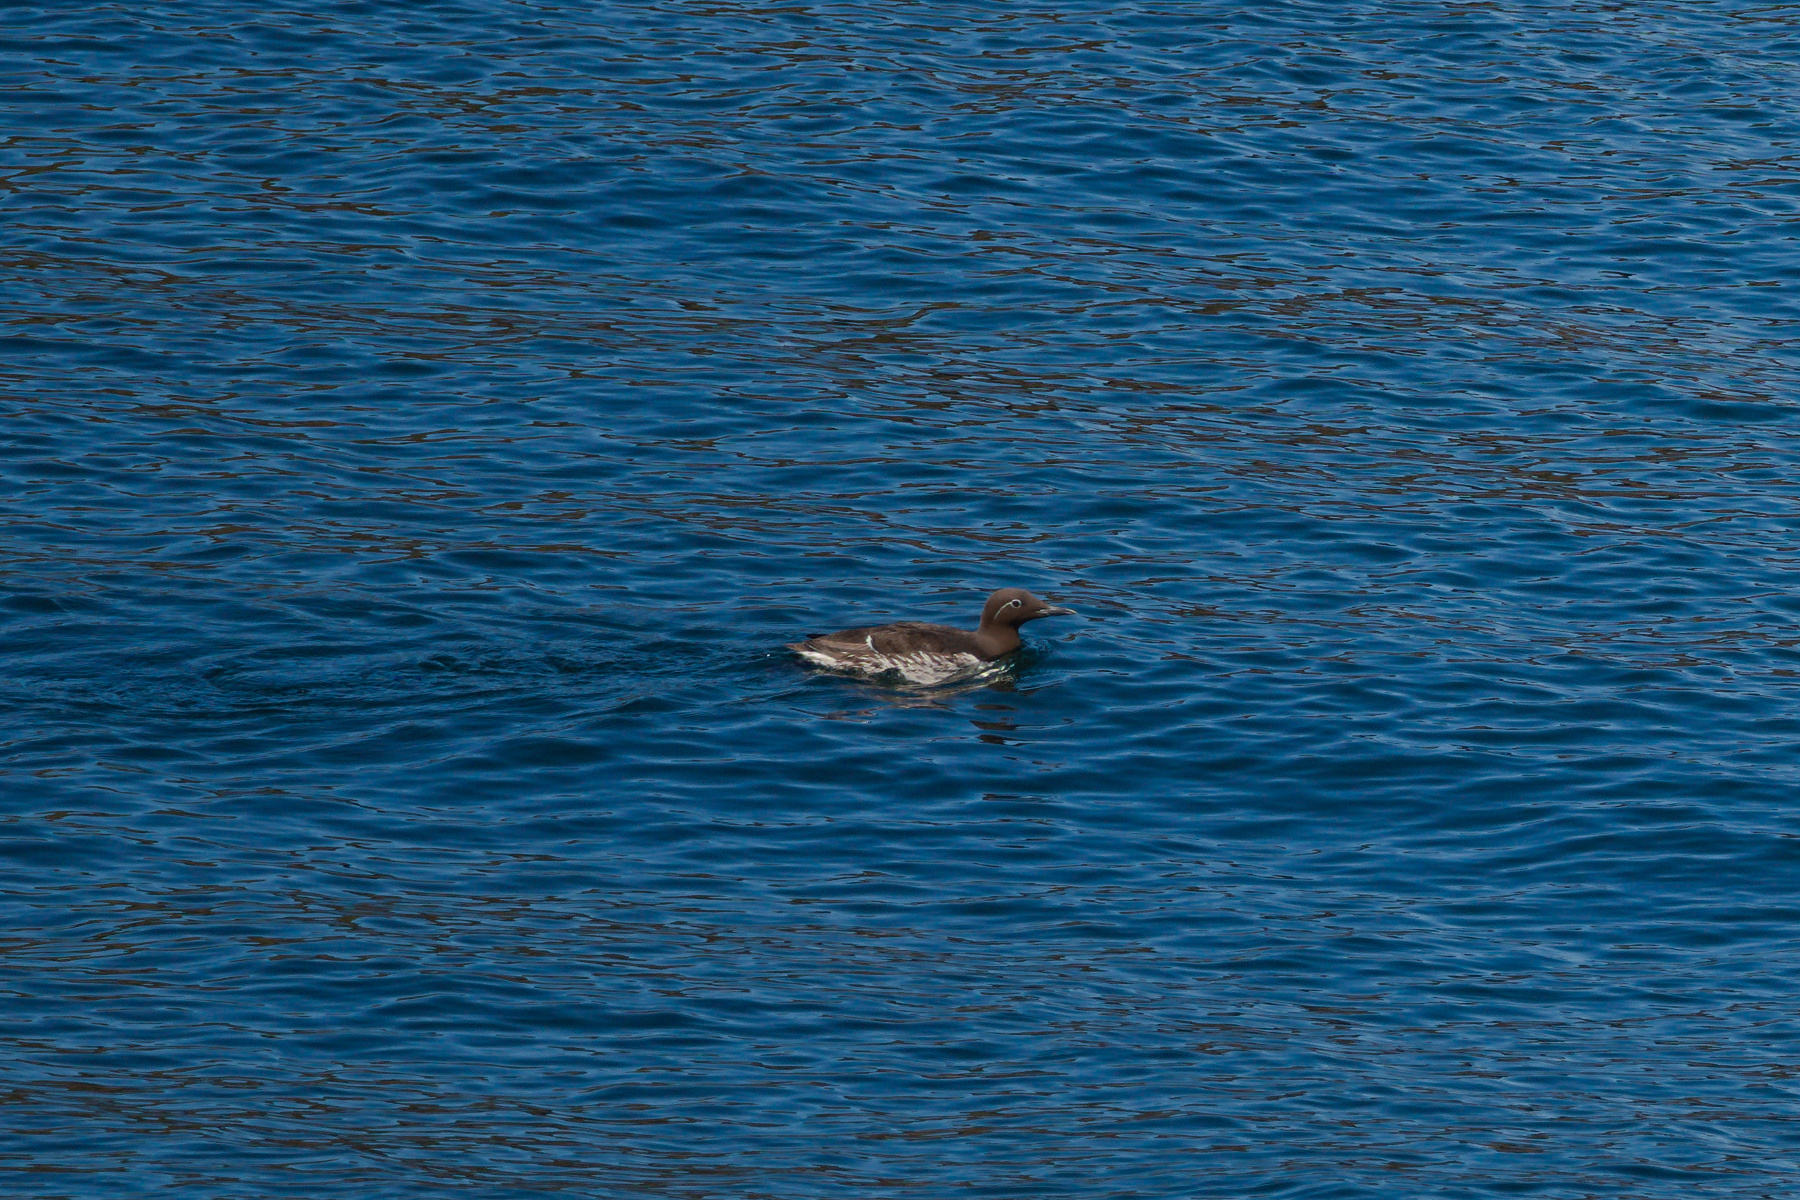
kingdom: Animalia
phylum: Chordata
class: Aves
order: Charadriiformes
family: Alcidae
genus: Uria
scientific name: Uria aalge
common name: Common murre
